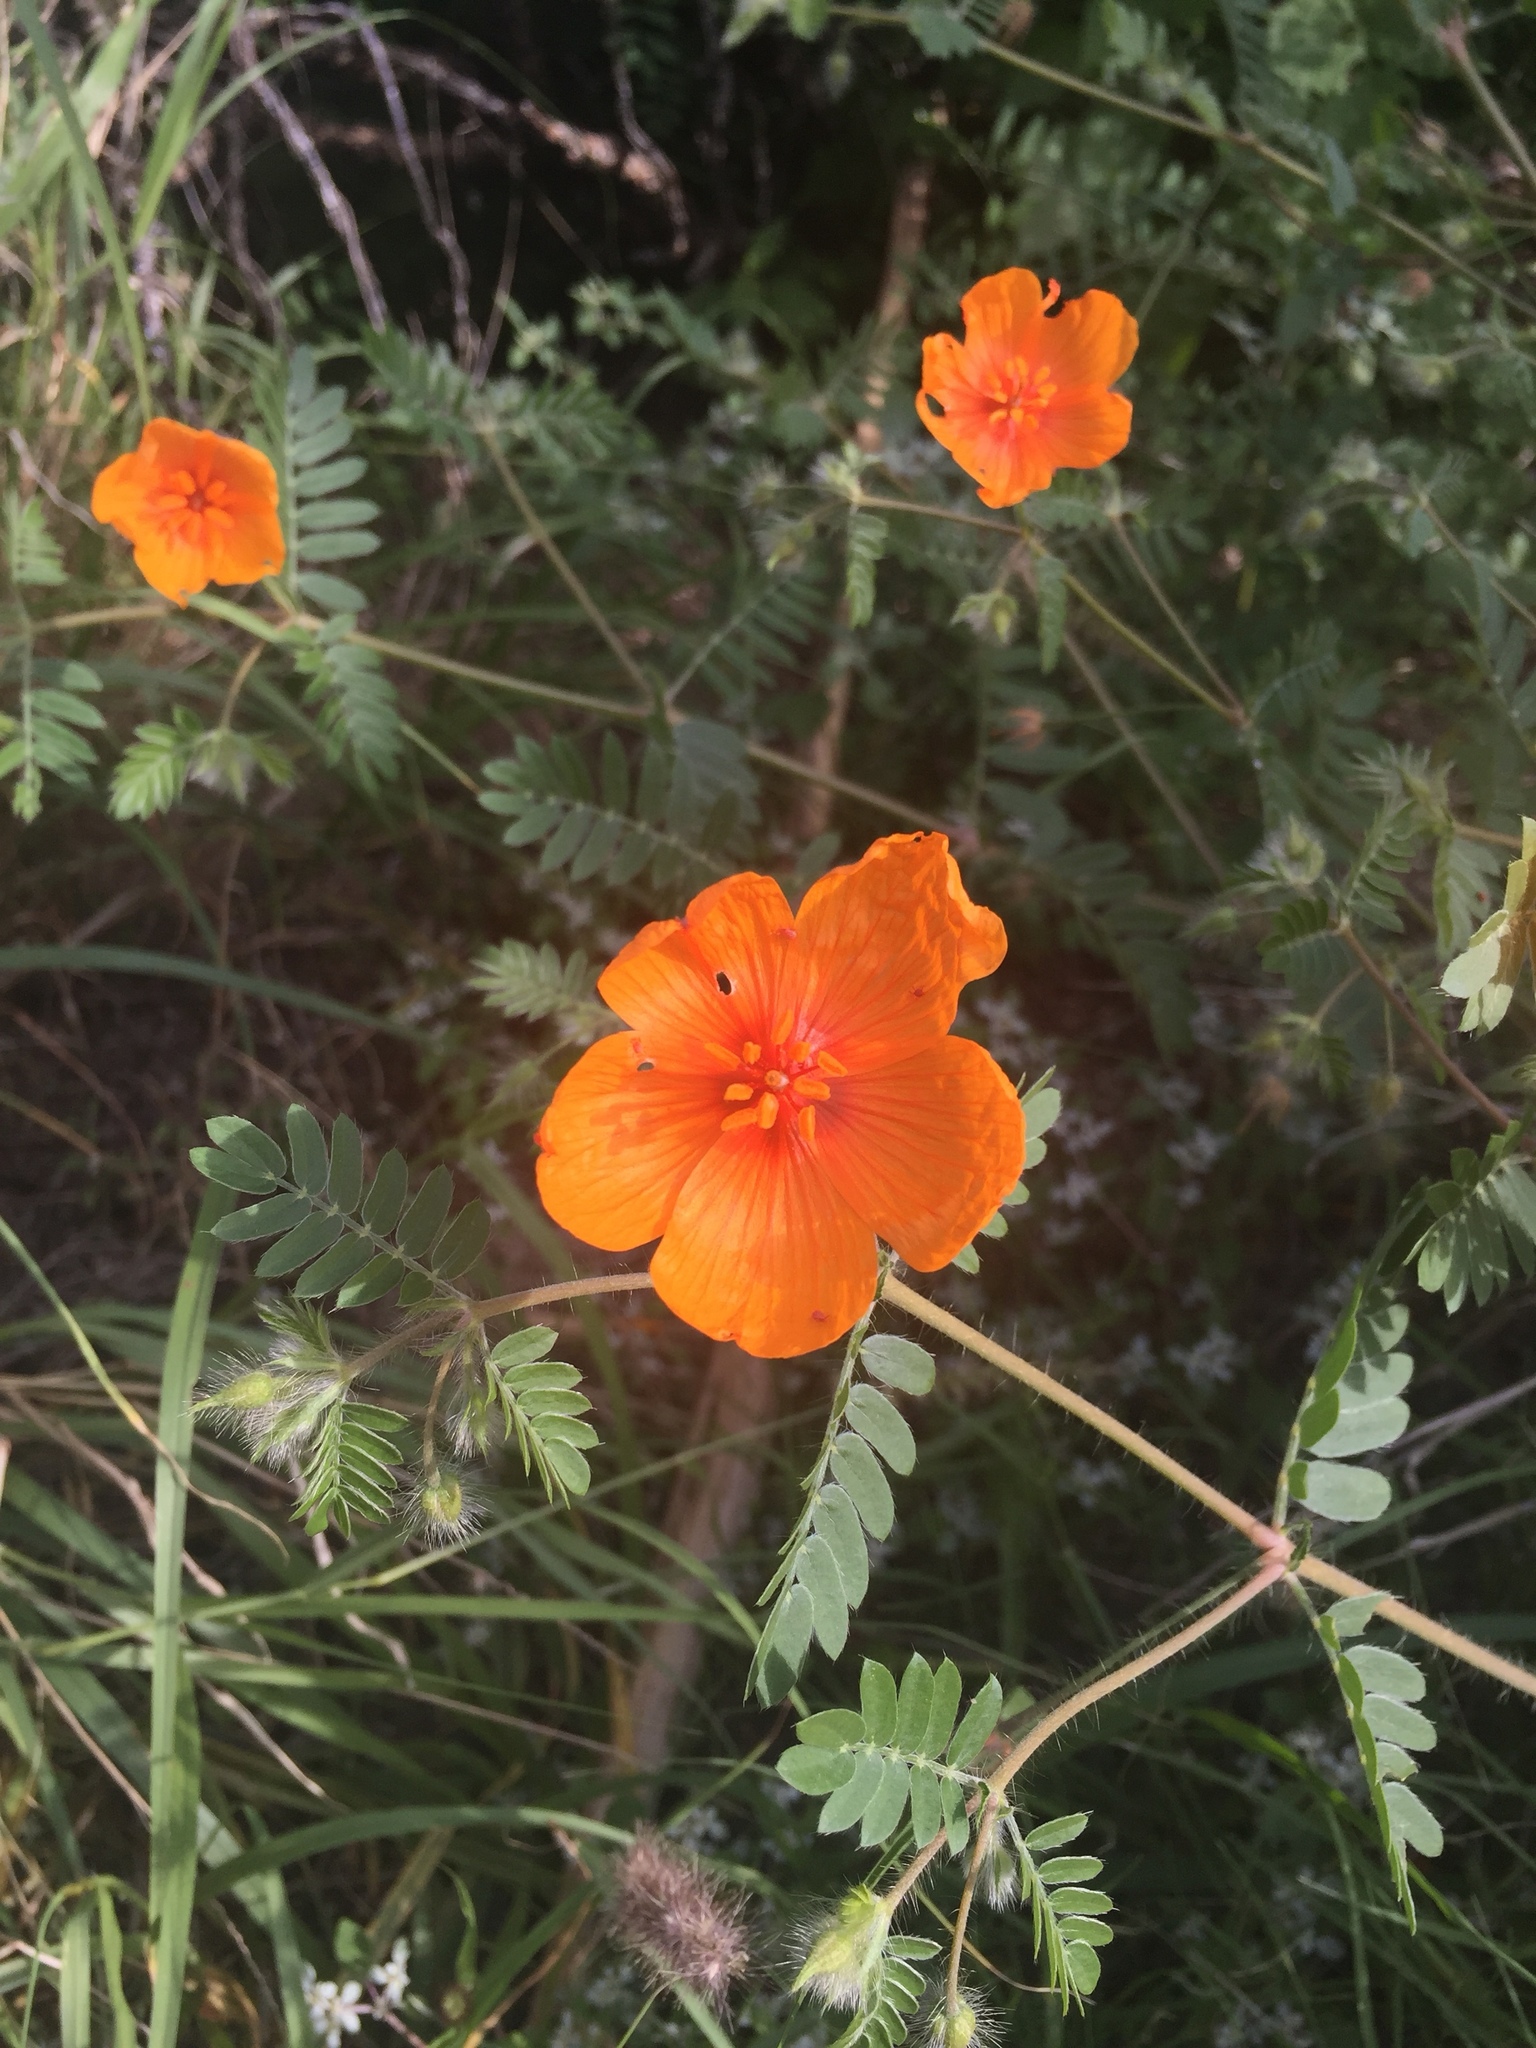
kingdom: Plantae
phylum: Tracheophyta
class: Magnoliopsida
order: Zygophyllales
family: Zygophyllaceae
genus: Kallstroemia
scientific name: Kallstroemia grandiflora
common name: Arizona-poppy
